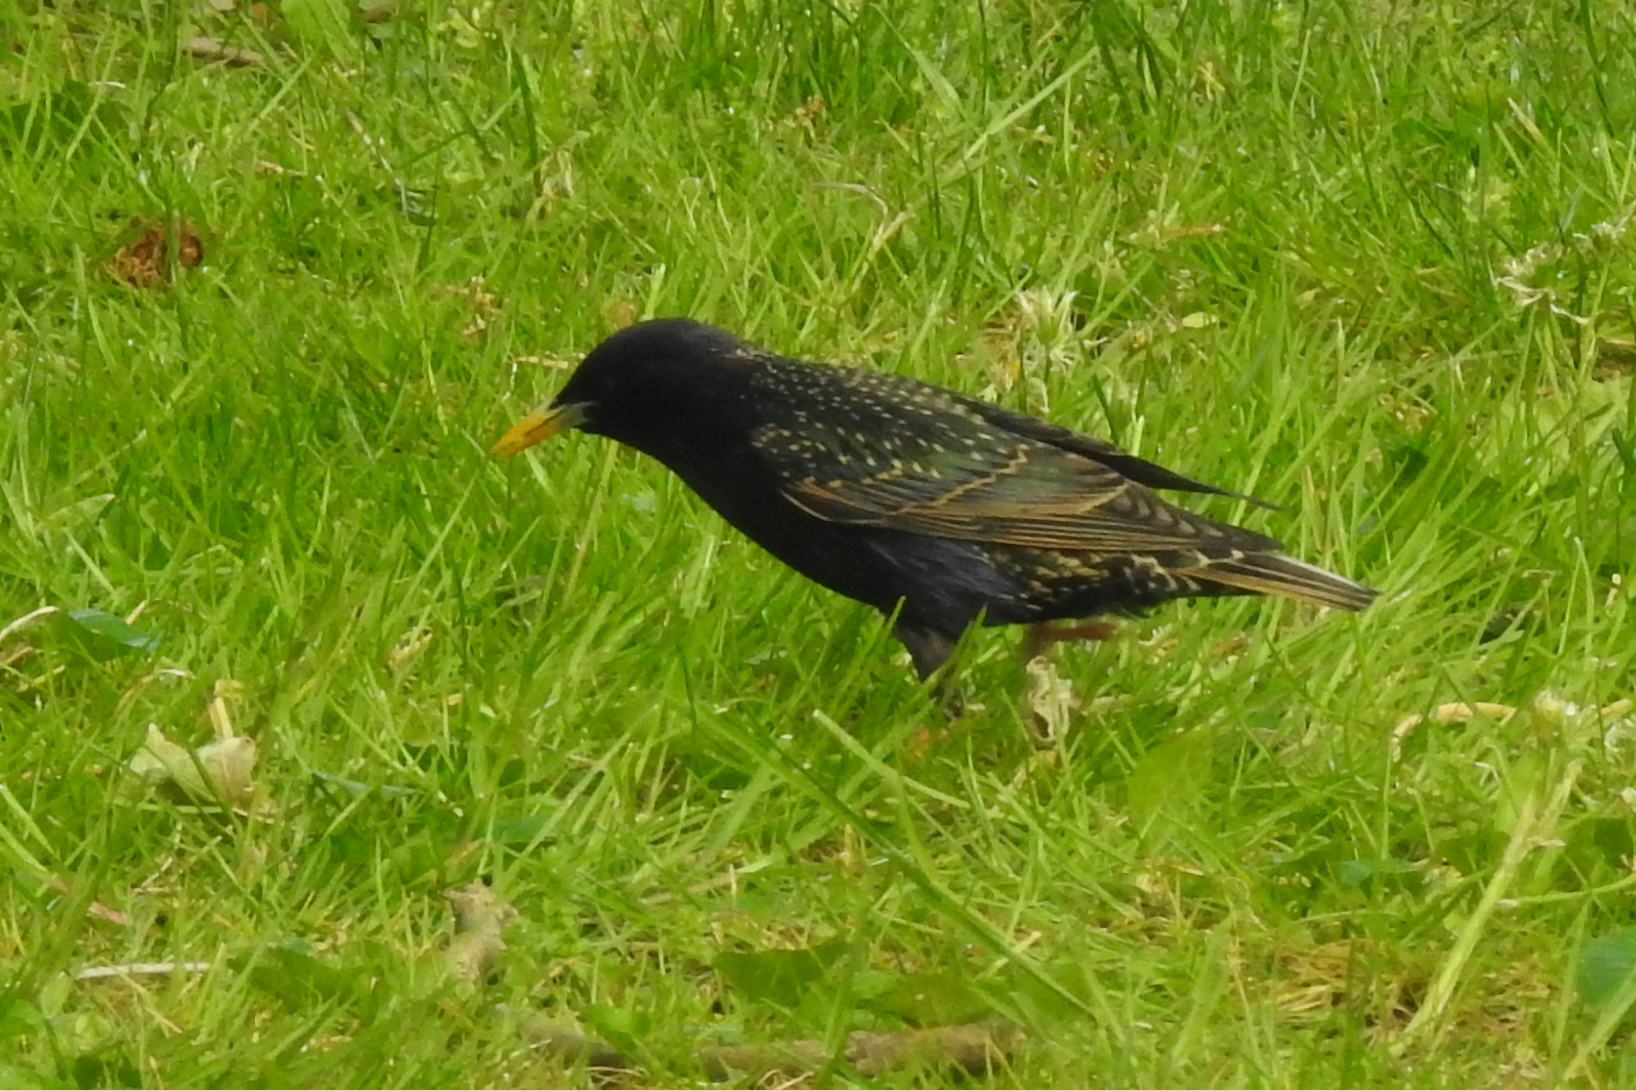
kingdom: Animalia
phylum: Chordata
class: Aves
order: Passeriformes
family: Sturnidae
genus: Sturnus
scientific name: Sturnus vulgaris
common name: Common starling
